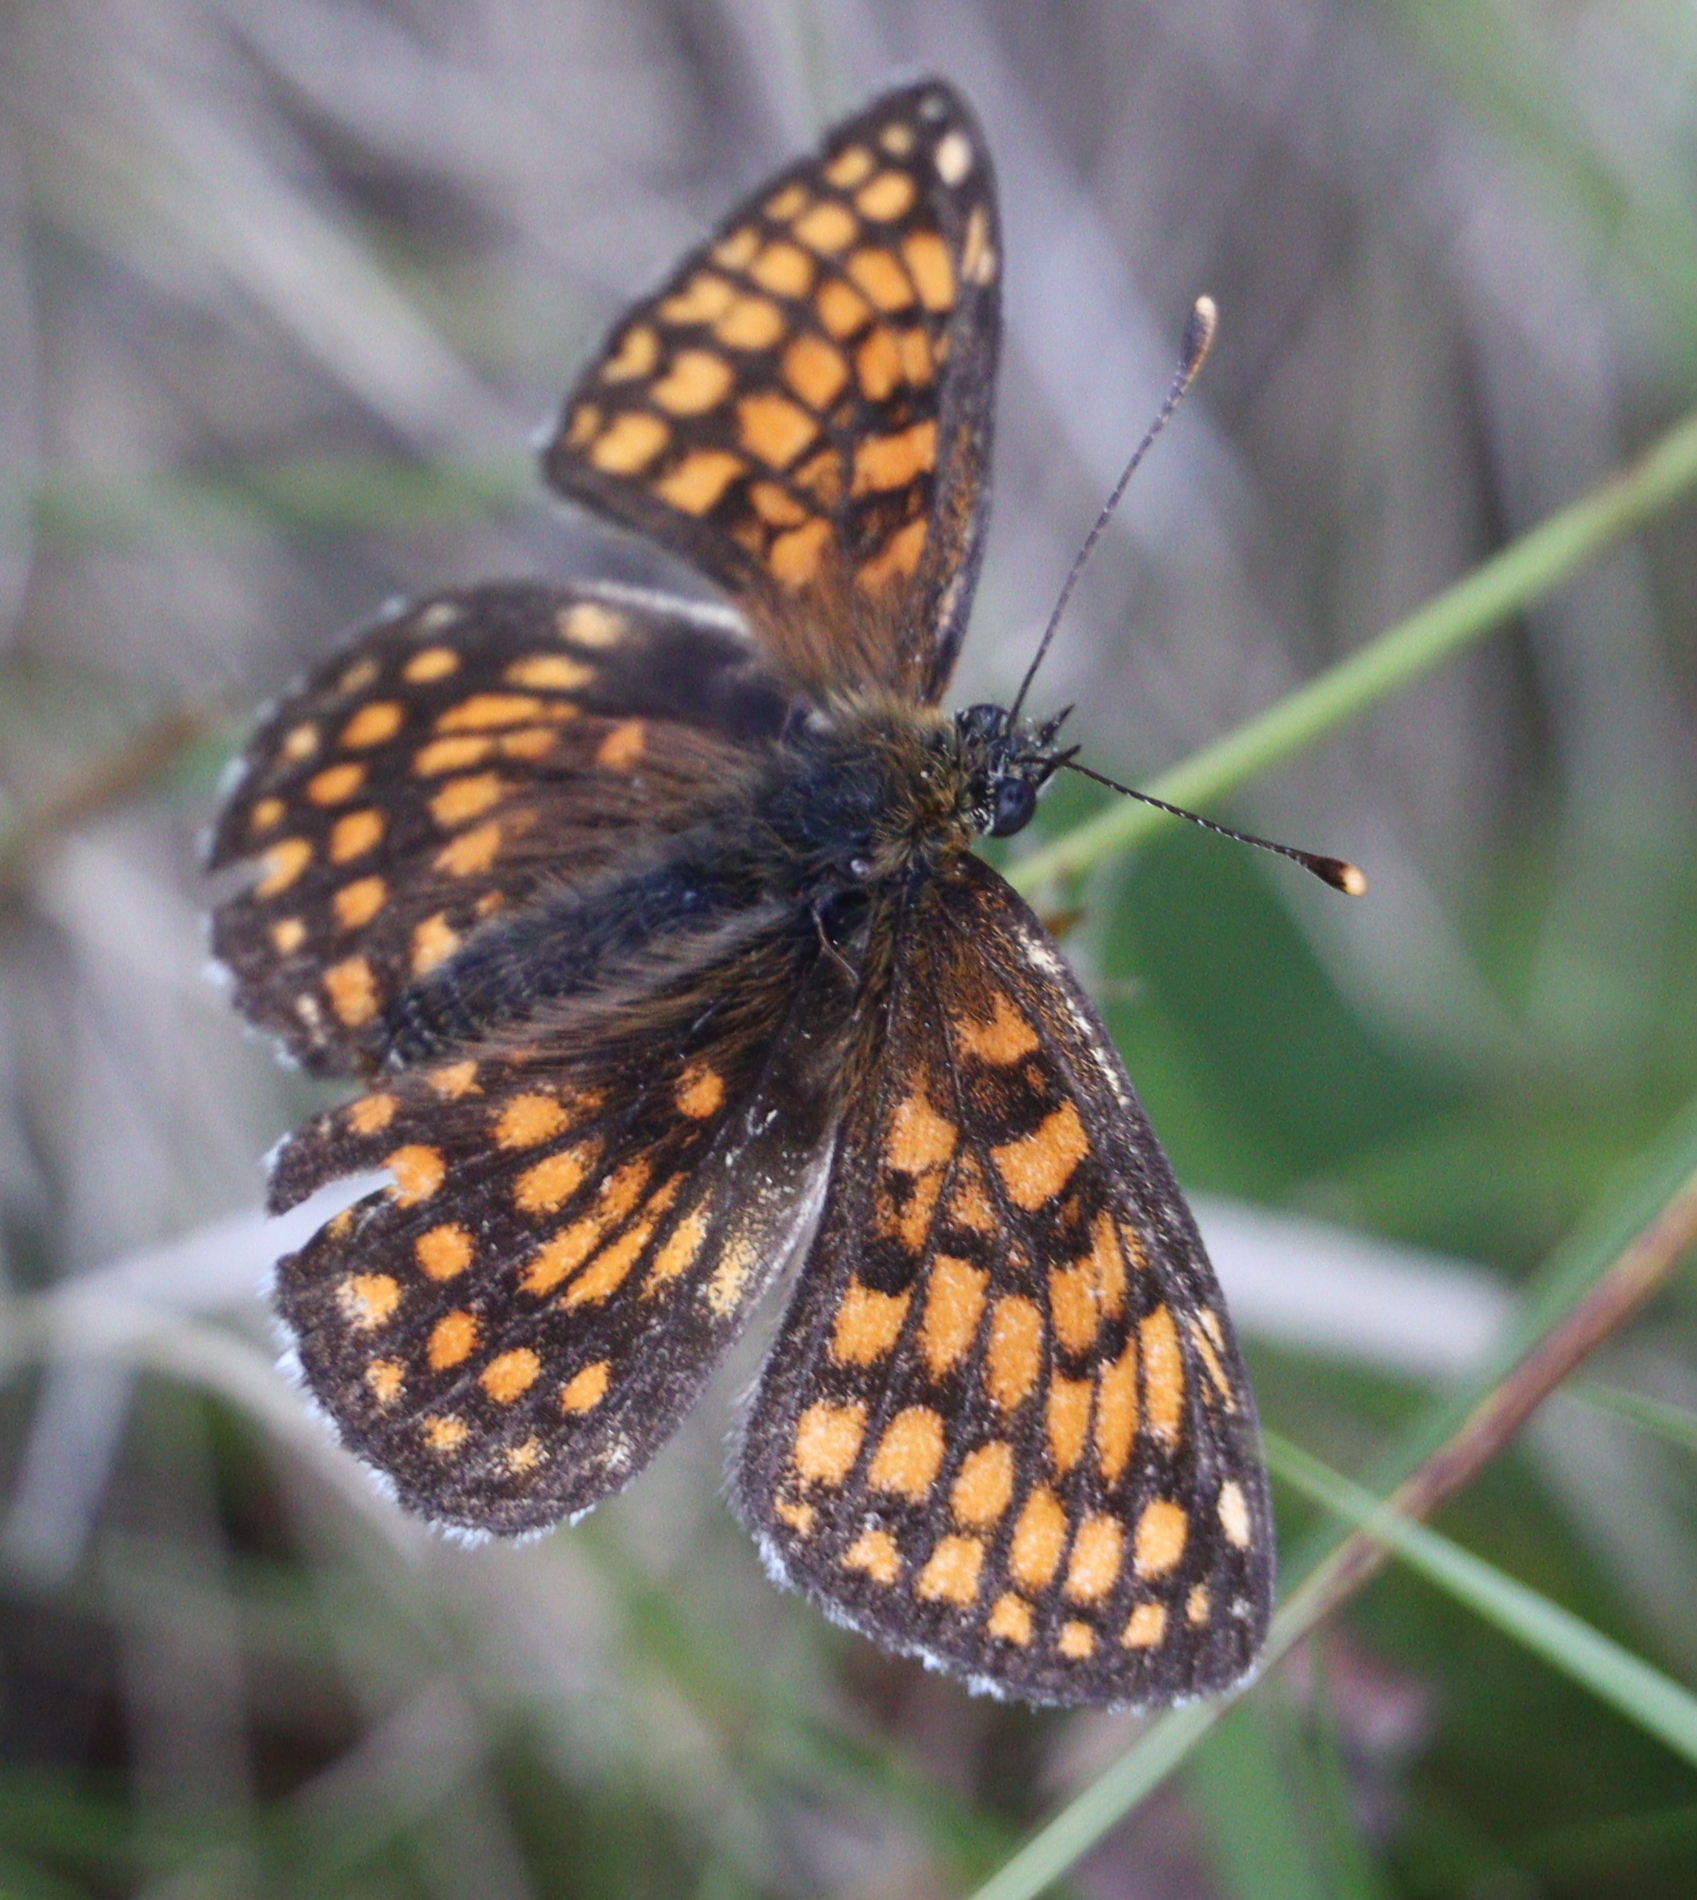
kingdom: Animalia
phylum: Arthropoda
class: Insecta
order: Lepidoptera
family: Nymphalidae
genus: Melitaea
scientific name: Melitaea athalia
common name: Heath fritillary
